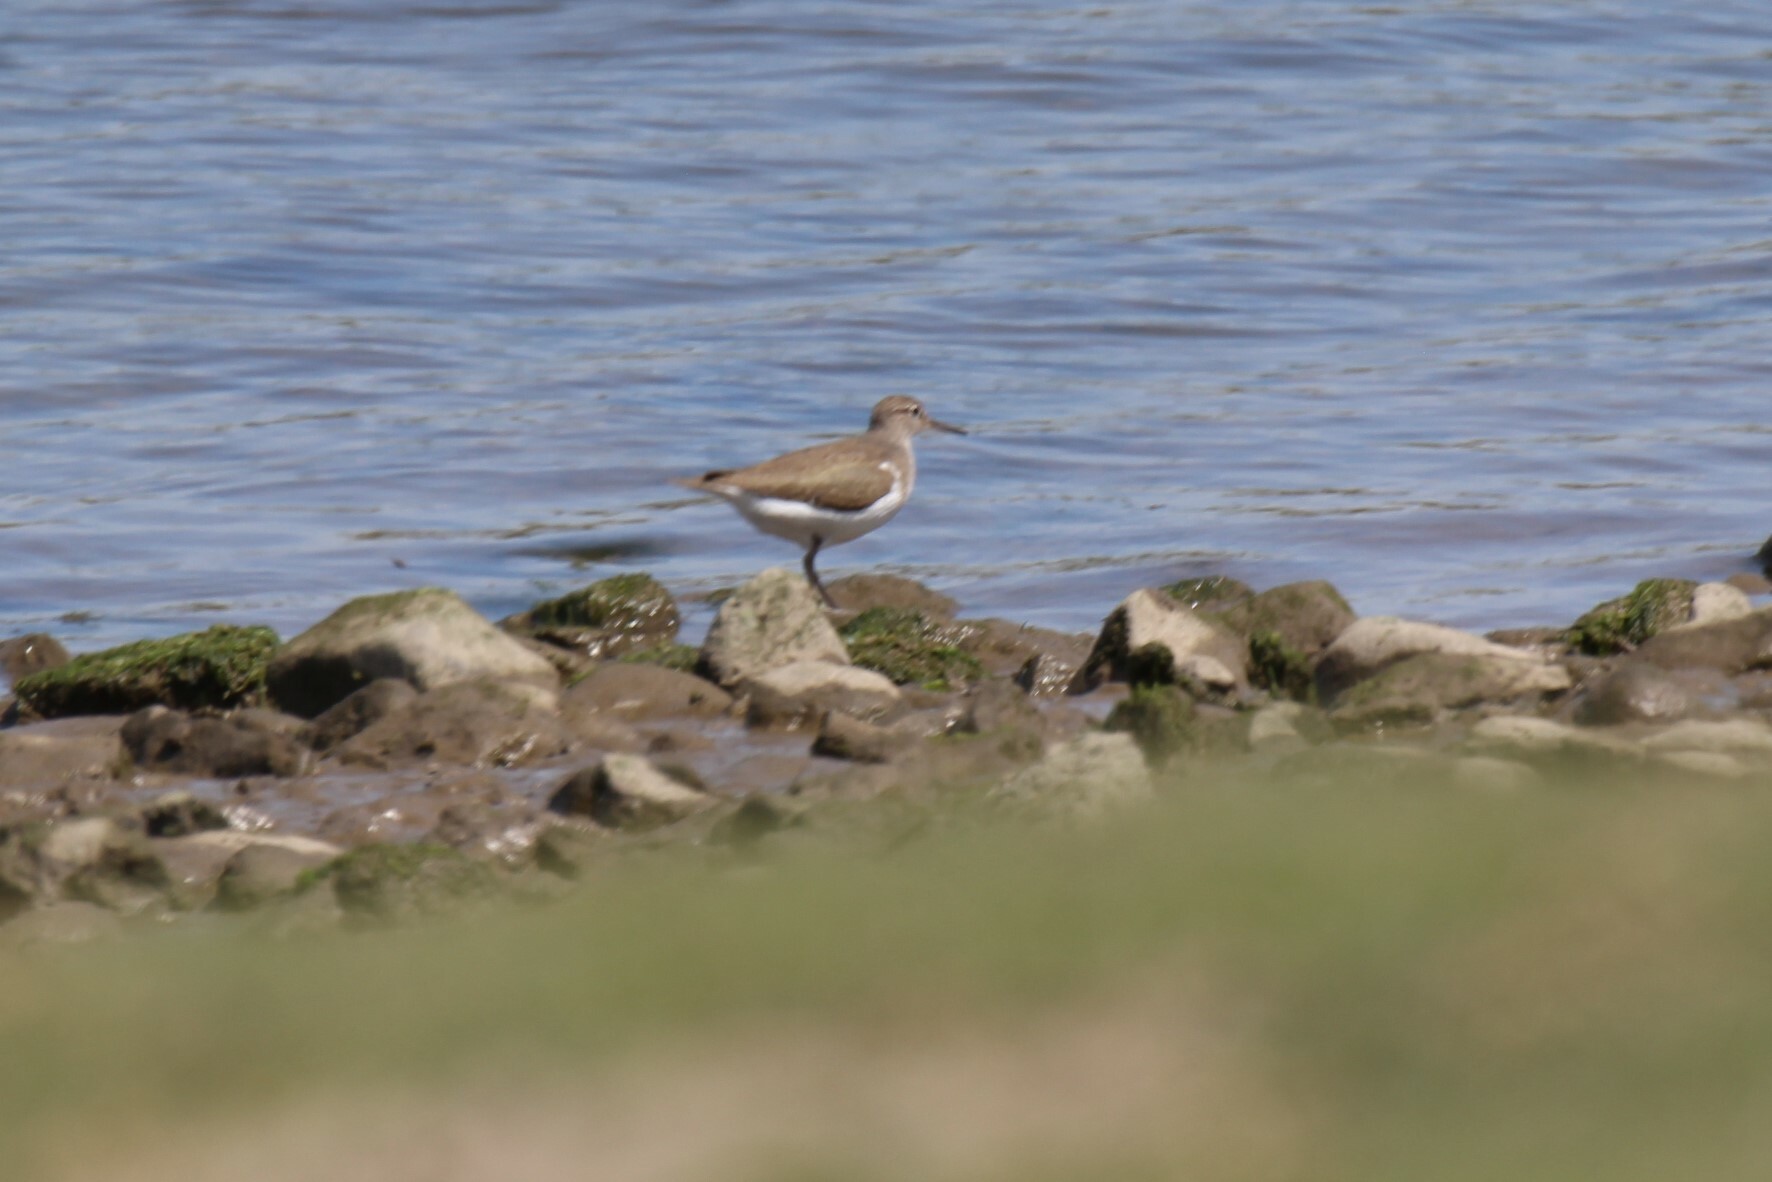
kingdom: Animalia
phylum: Chordata
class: Aves
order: Charadriiformes
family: Scolopacidae
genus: Actitis
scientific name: Actitis hypoleucos
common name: Common sandpiper
